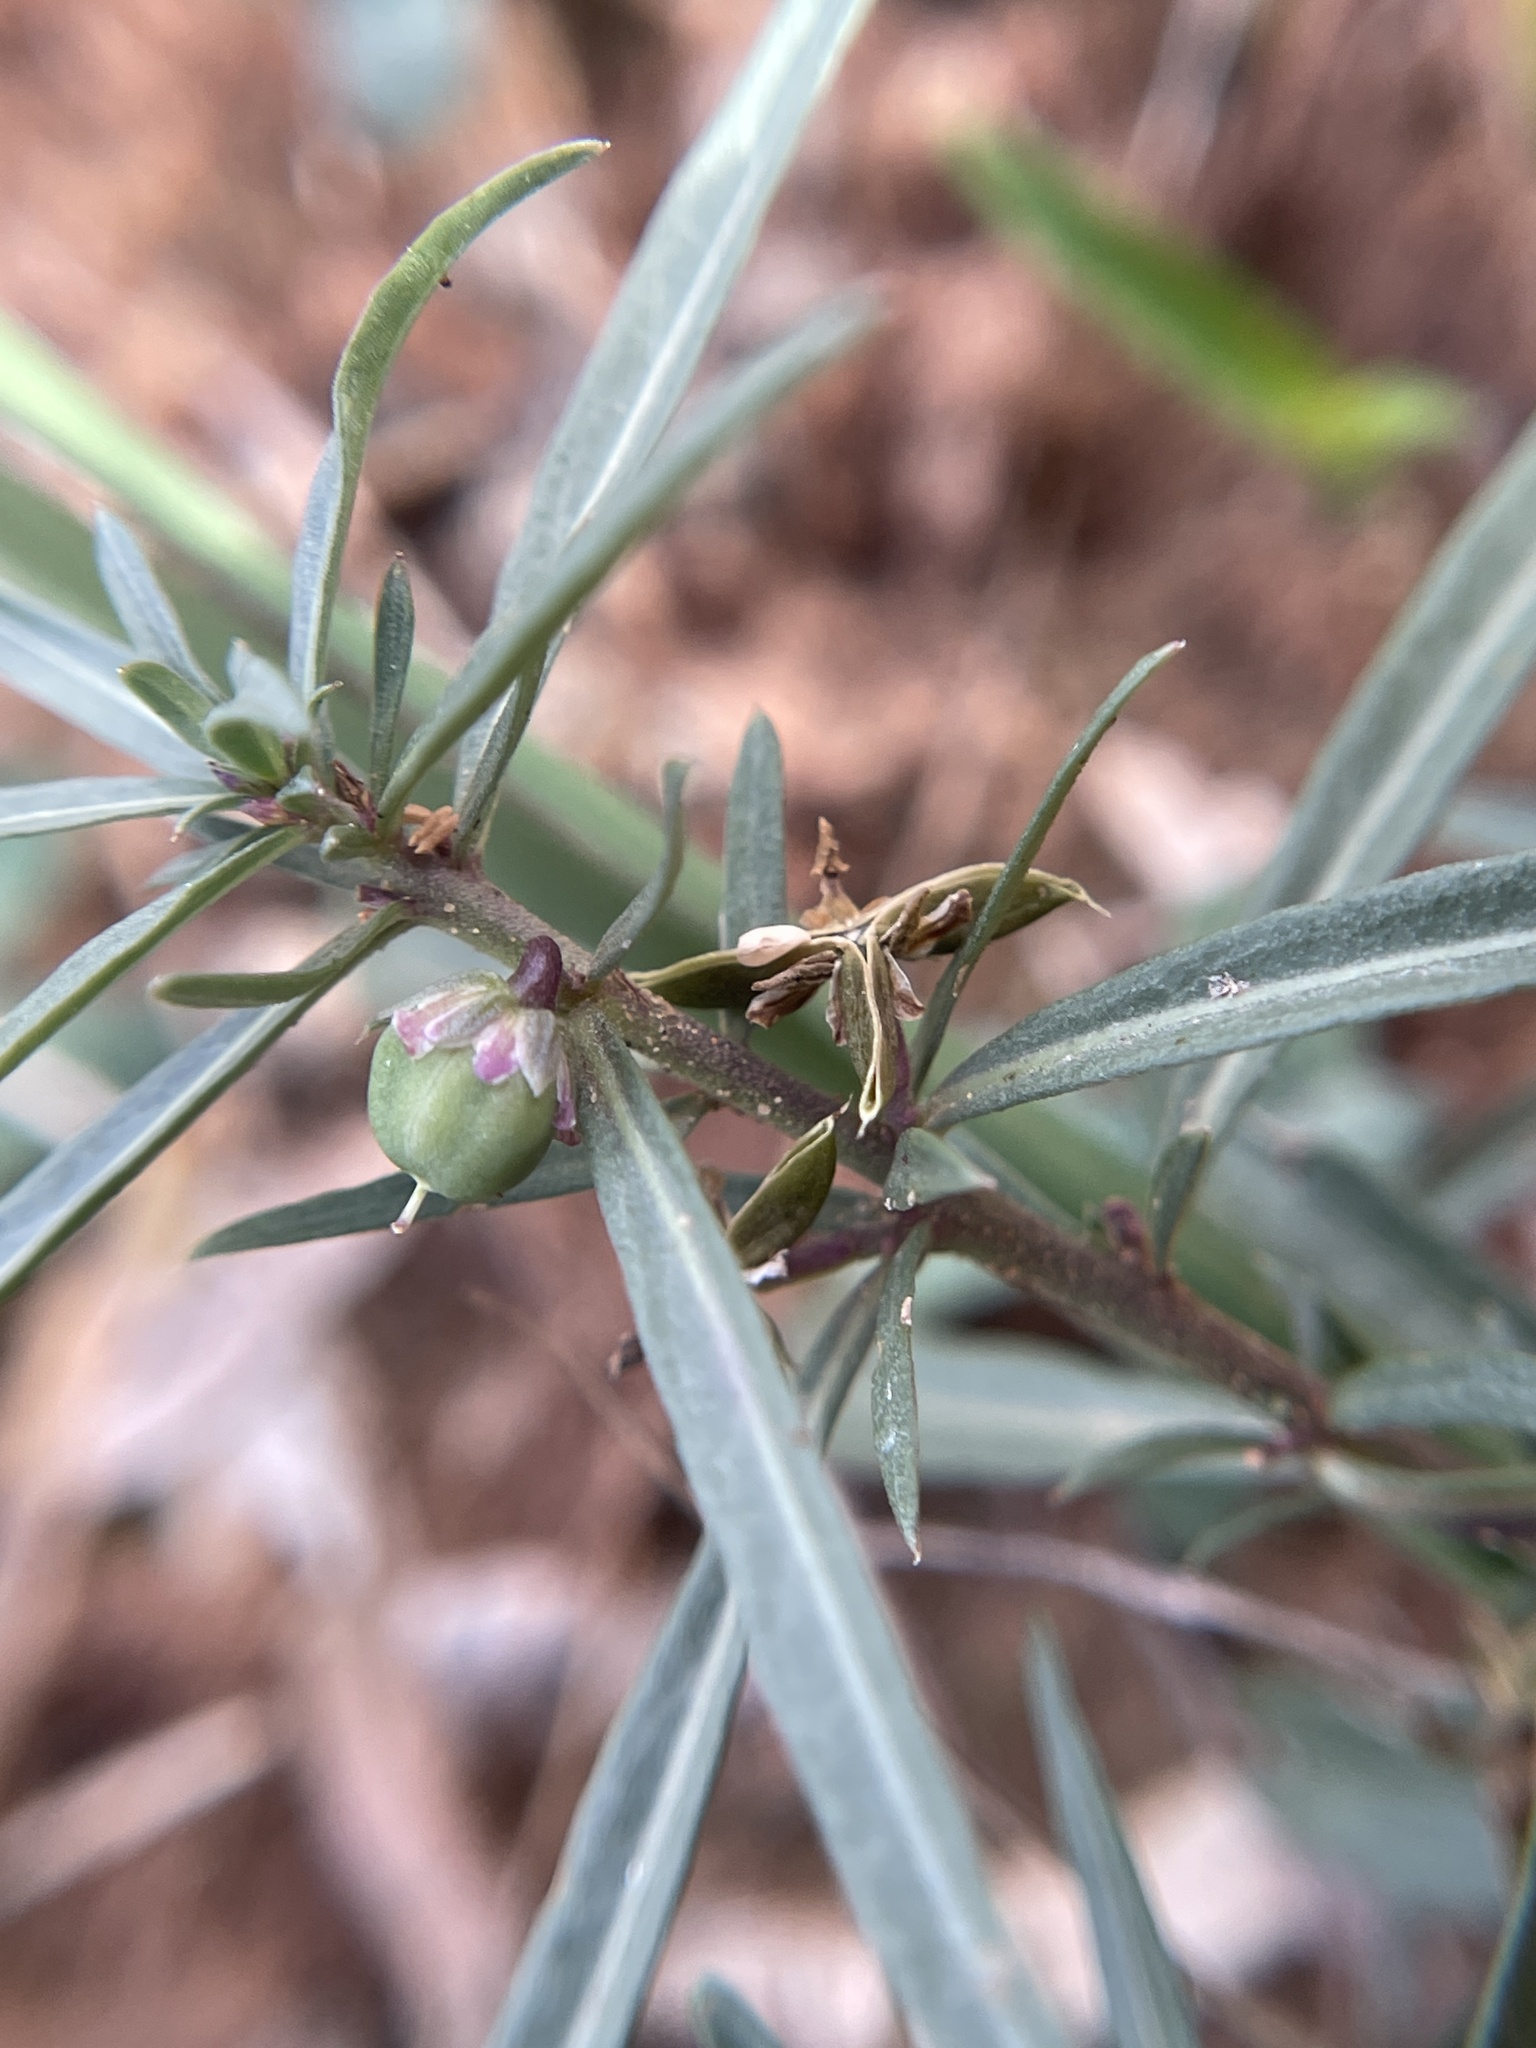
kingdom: Plantae
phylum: Tracheophyta
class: Magnoliopsida
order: Malpighiales
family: Violaceae
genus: Pombalia
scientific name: Pombalia verticillata
